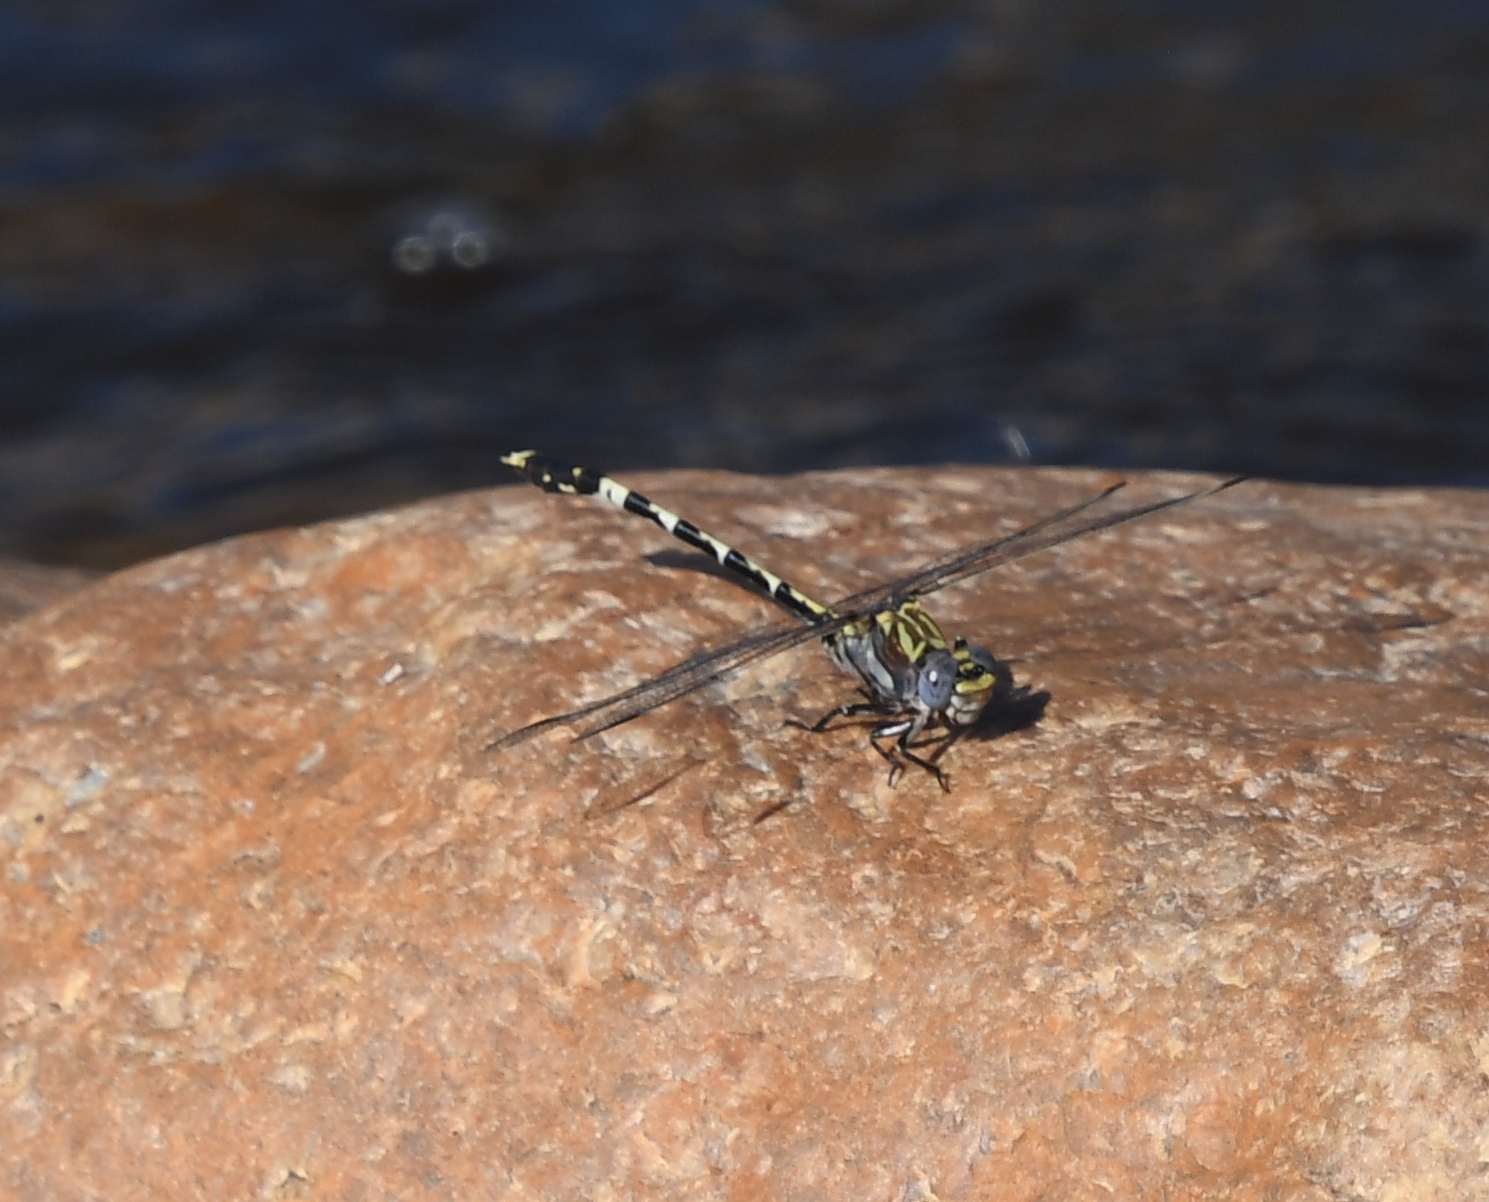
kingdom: Animalia
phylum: Arthropoda
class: Insecta
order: Odonata
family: Gomphidae
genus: Progomphus
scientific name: Progomphus borealis
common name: Gray sanddragon
